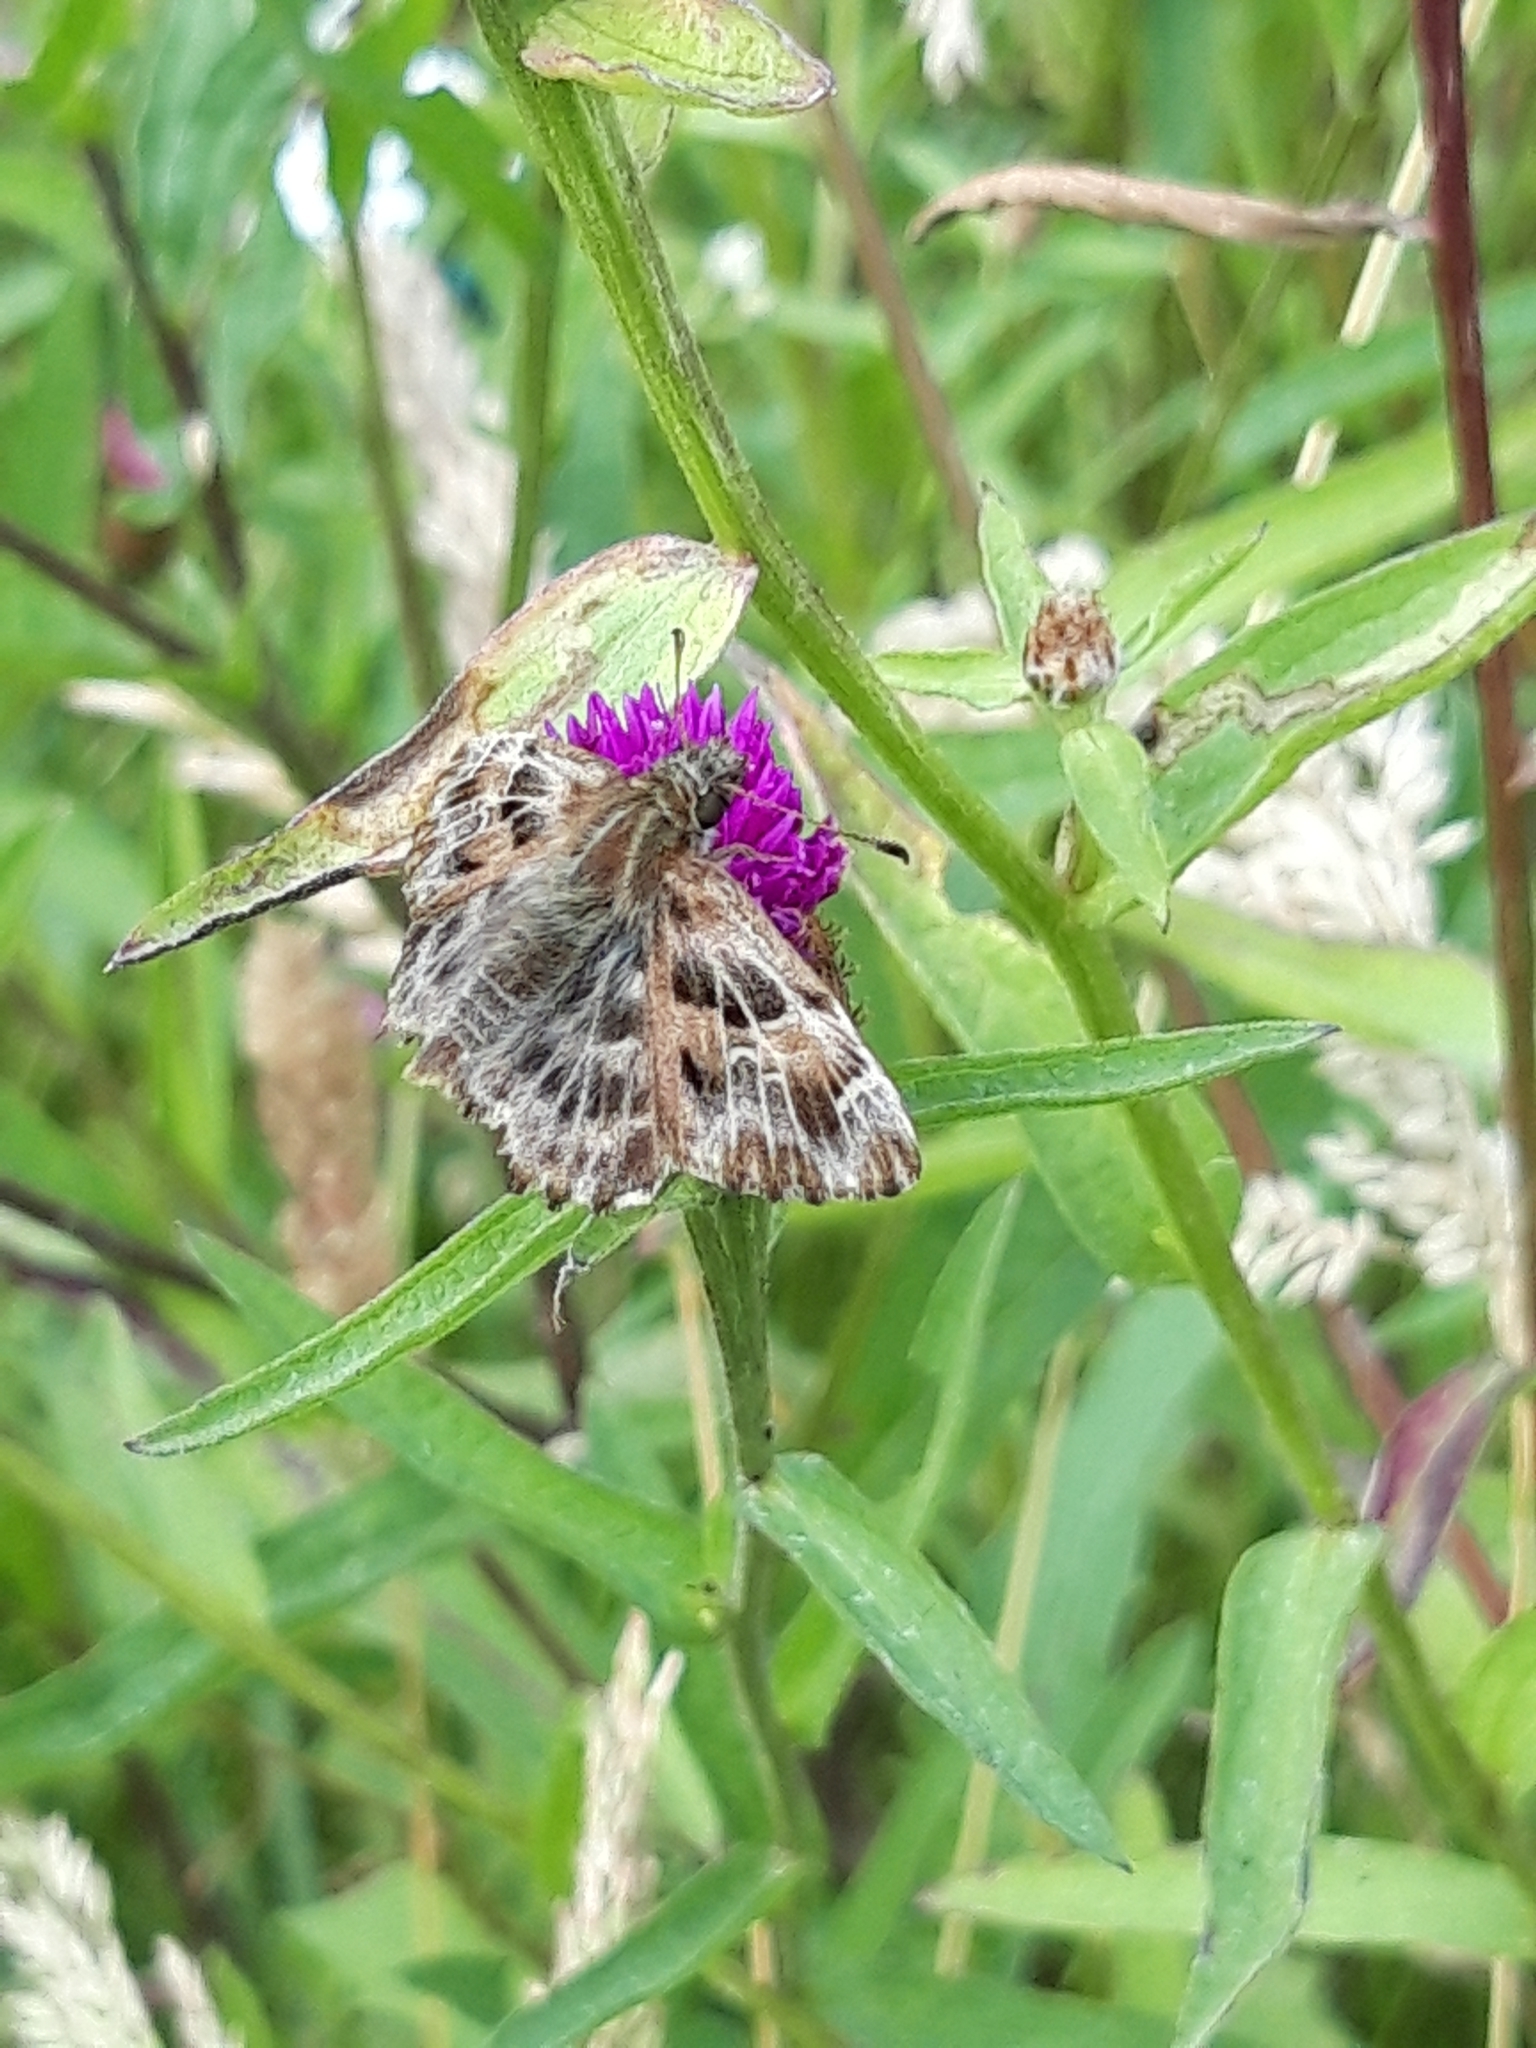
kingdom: Animalia
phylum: Arthropoda
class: Insecta
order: Lepidoptera
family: Hesperiidae
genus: Carcharodus
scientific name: Carcharodus alceae
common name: Mallow skipper
